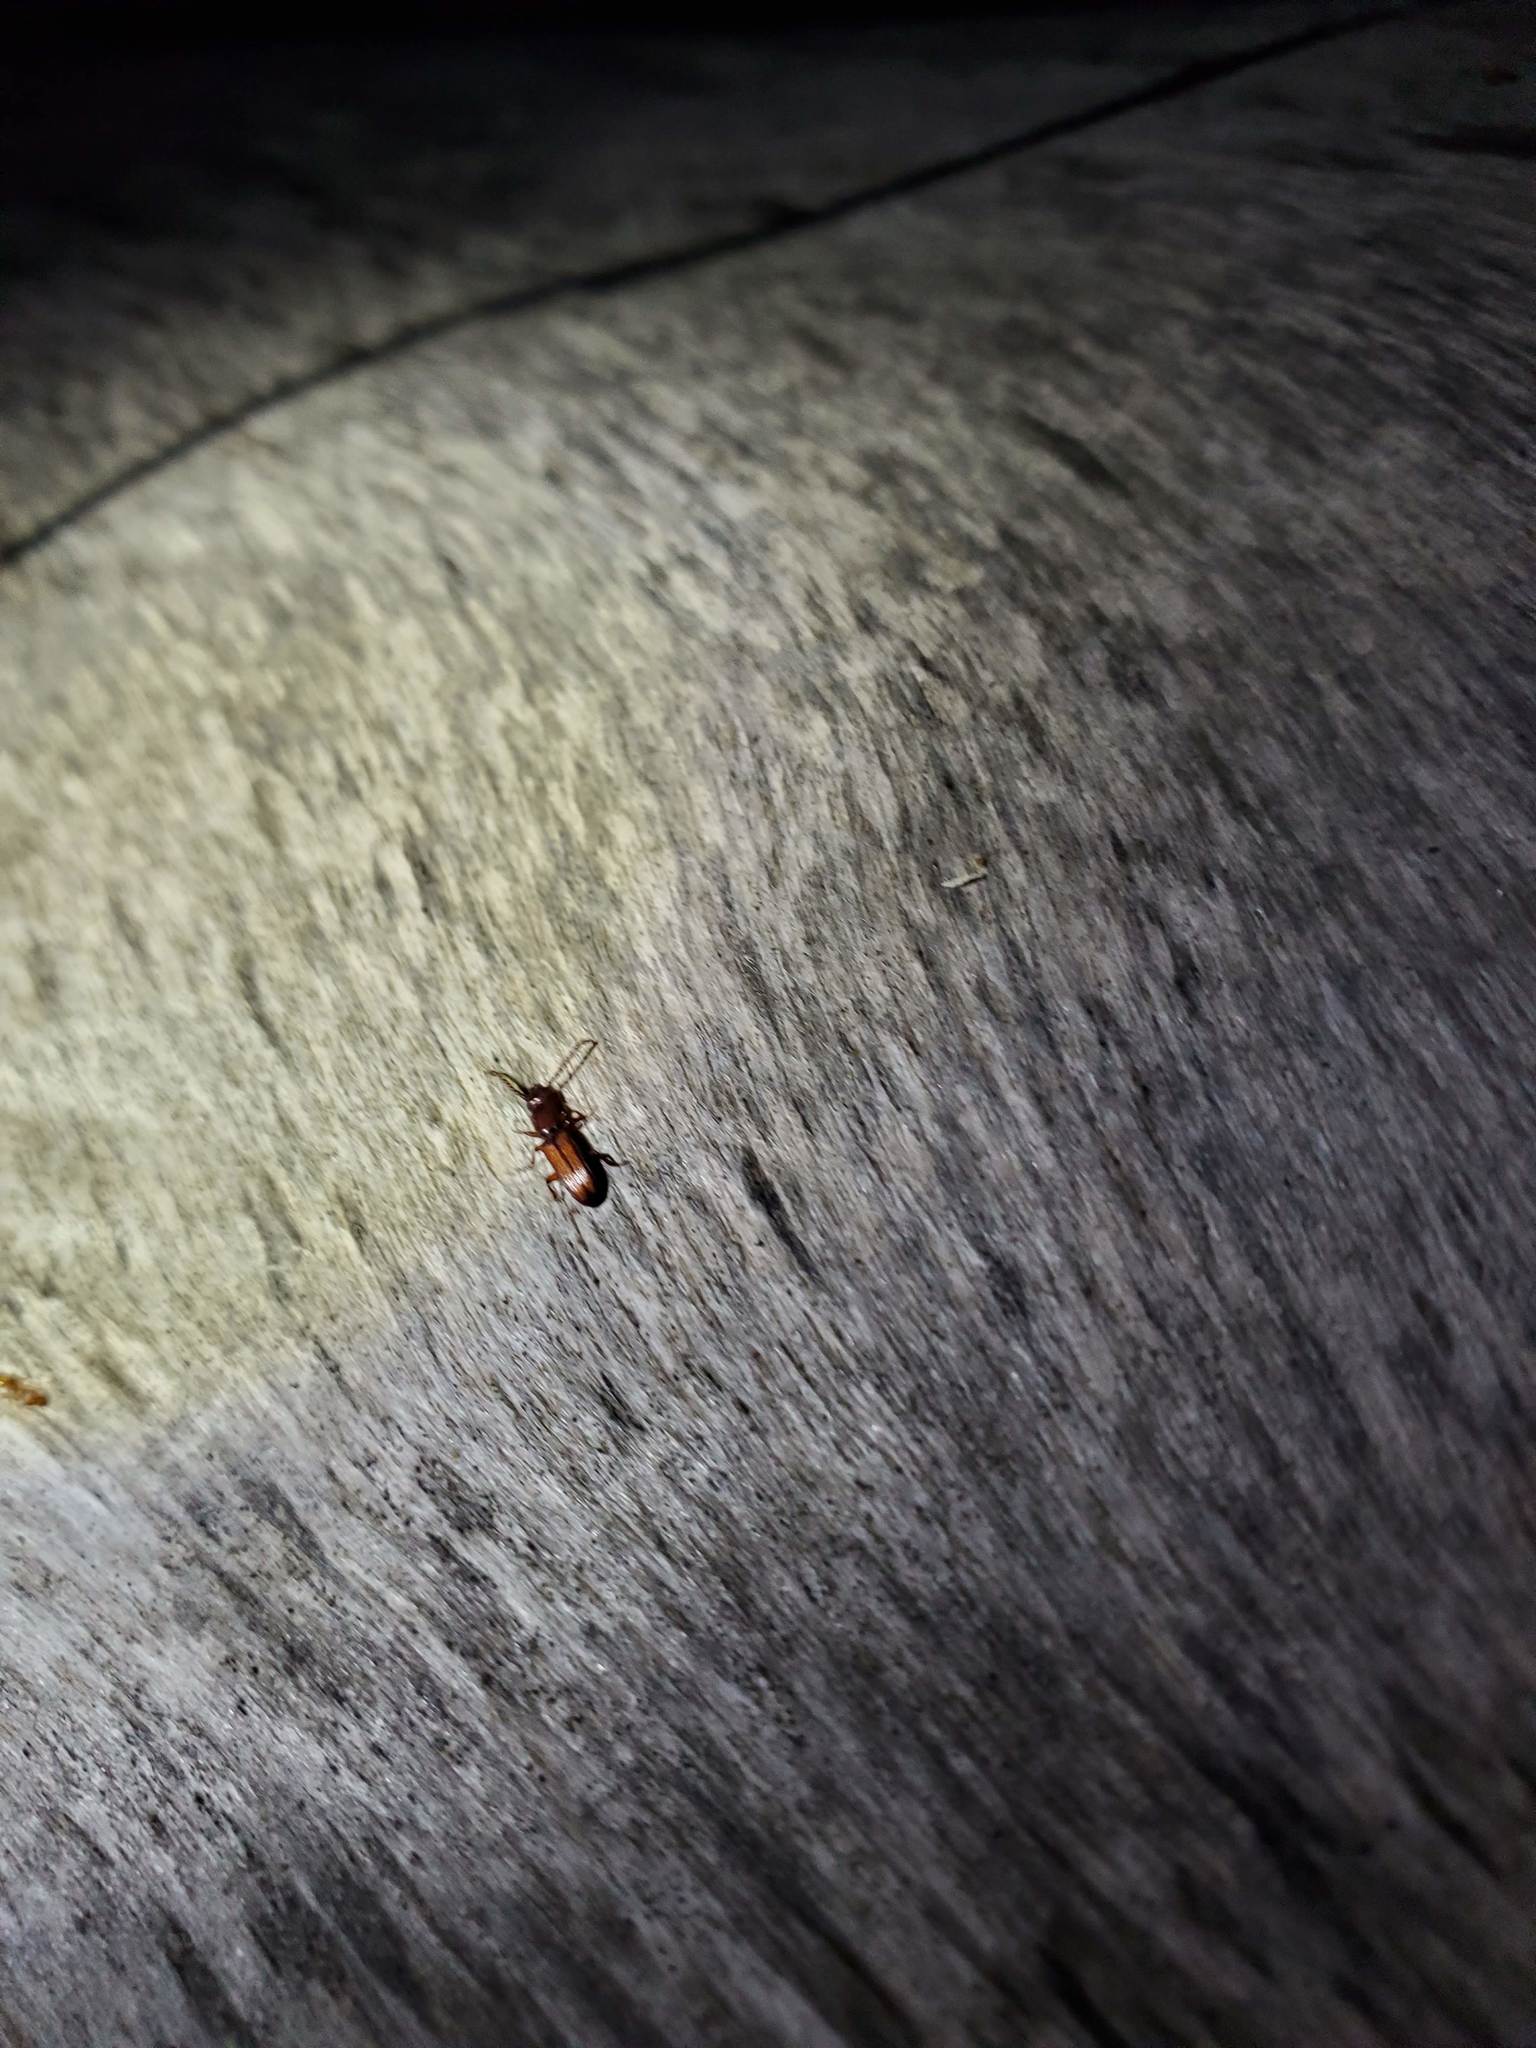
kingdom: Animalia
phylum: Arthropoda
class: Insecta
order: Coleoptera
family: Passandridae
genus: Catogenus
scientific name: Catogenus rufus
